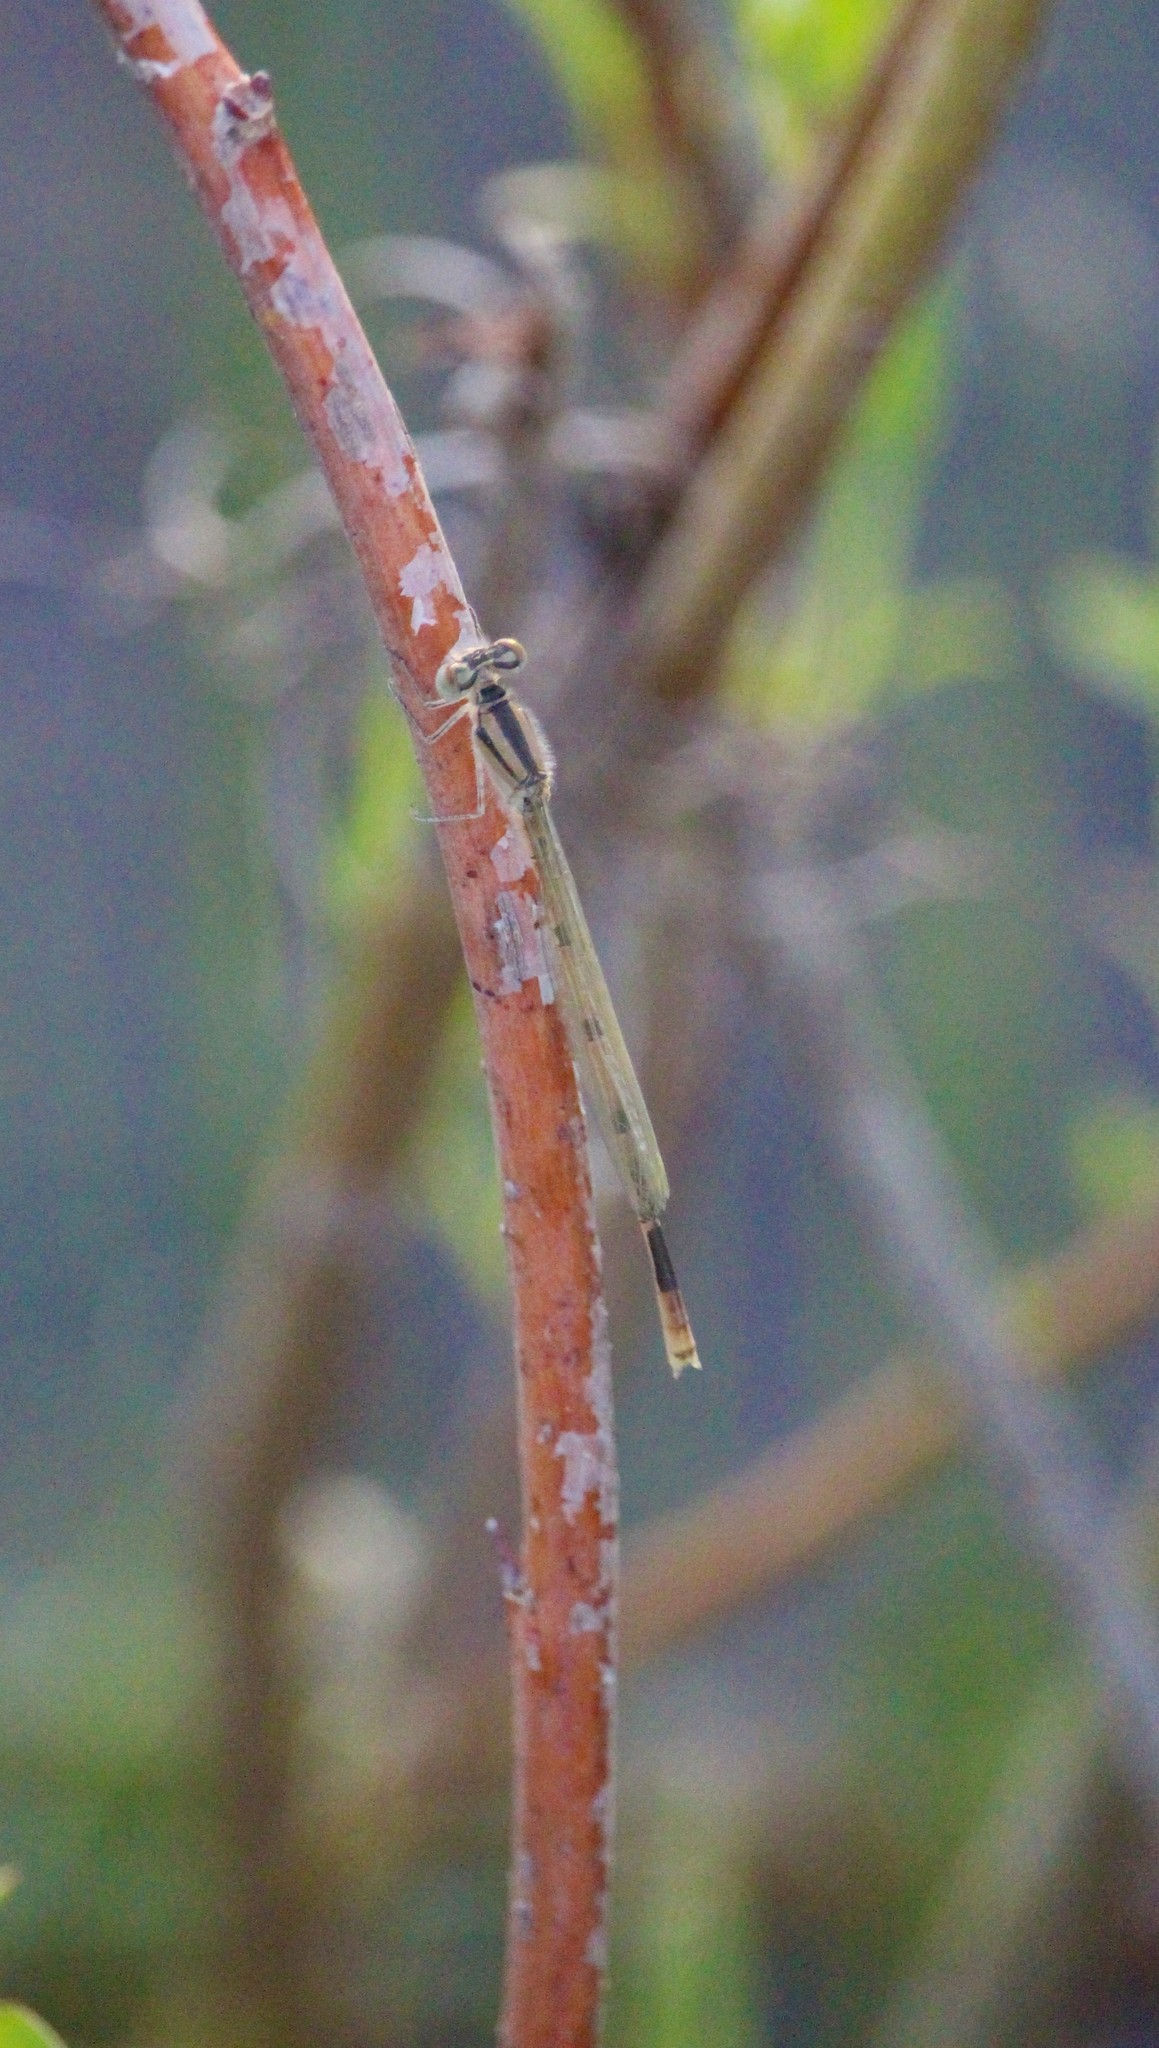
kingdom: Animalia
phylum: Arthropoda
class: Insecta
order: Odonata
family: Coenagrionidae
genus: Enallagma
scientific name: Enallagma signatum
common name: Orange bluet
